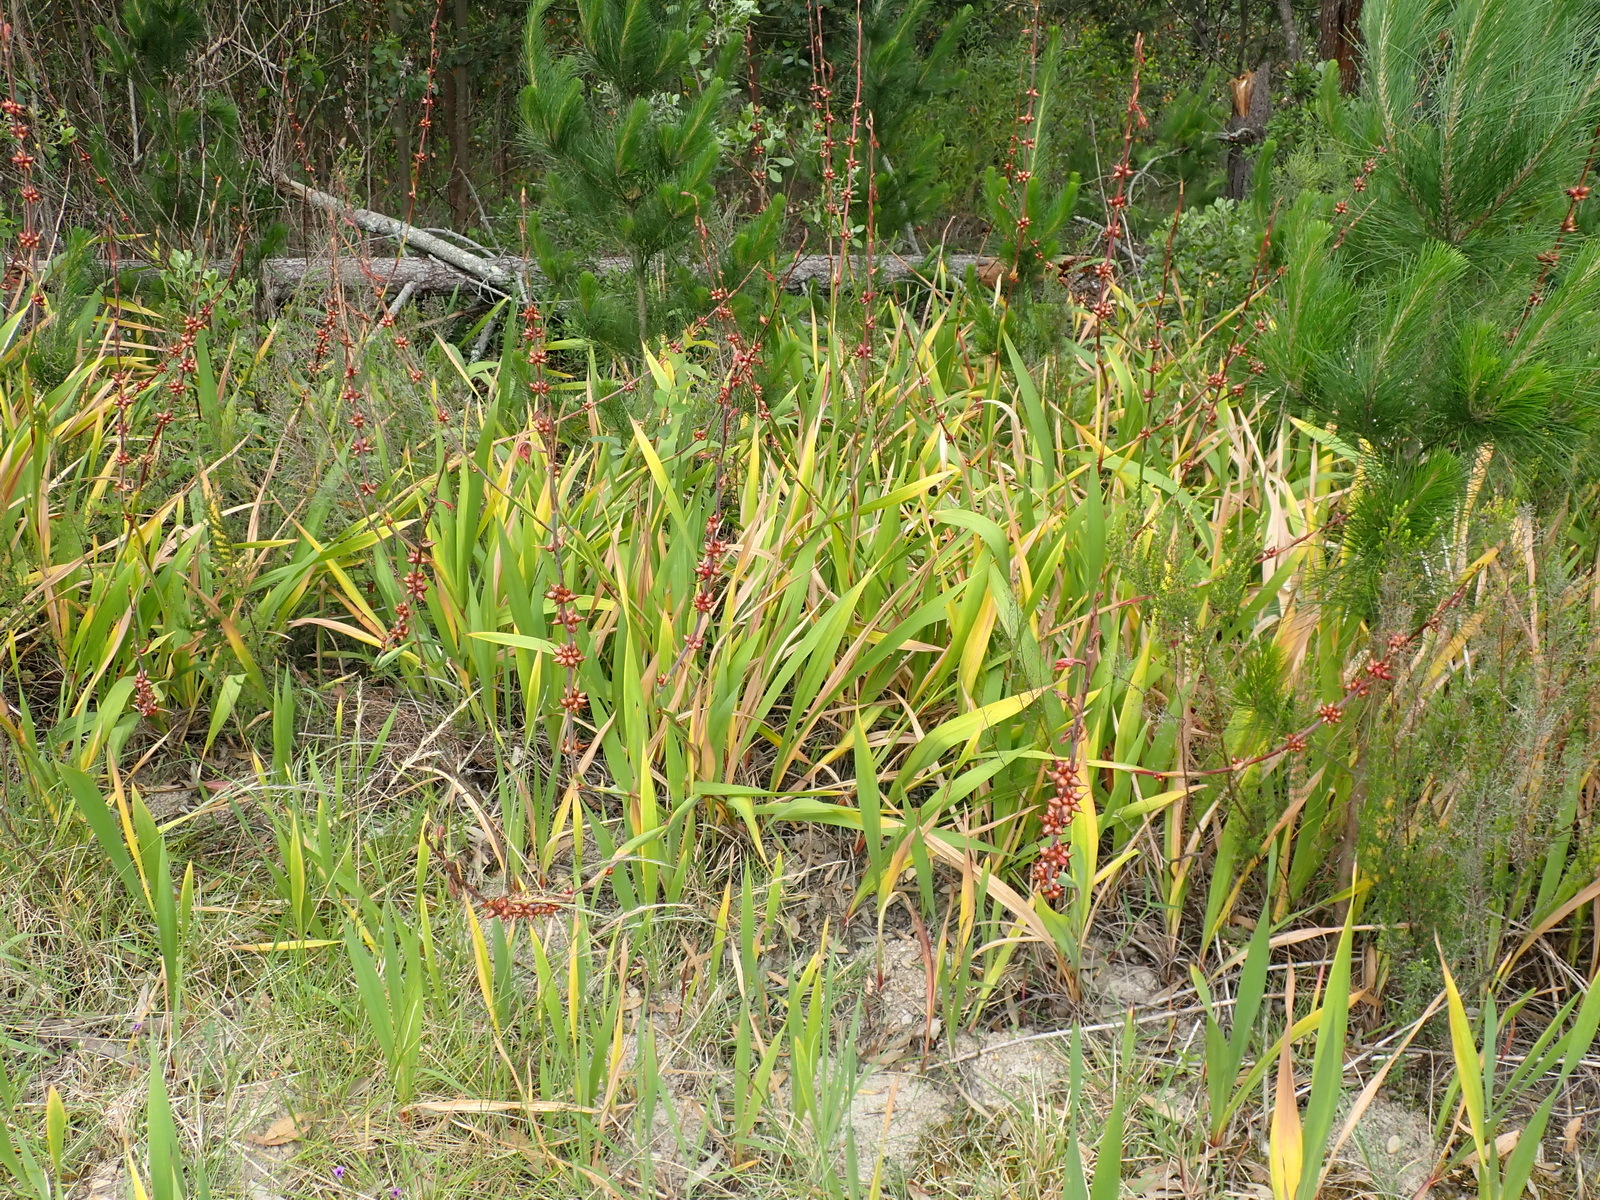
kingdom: Plantae
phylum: Tracheophyta
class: Liliopsida
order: Asparagales
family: Iridaceae
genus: Watsonia
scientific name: Watsonia meriana
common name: Bulbil bugle-lily
